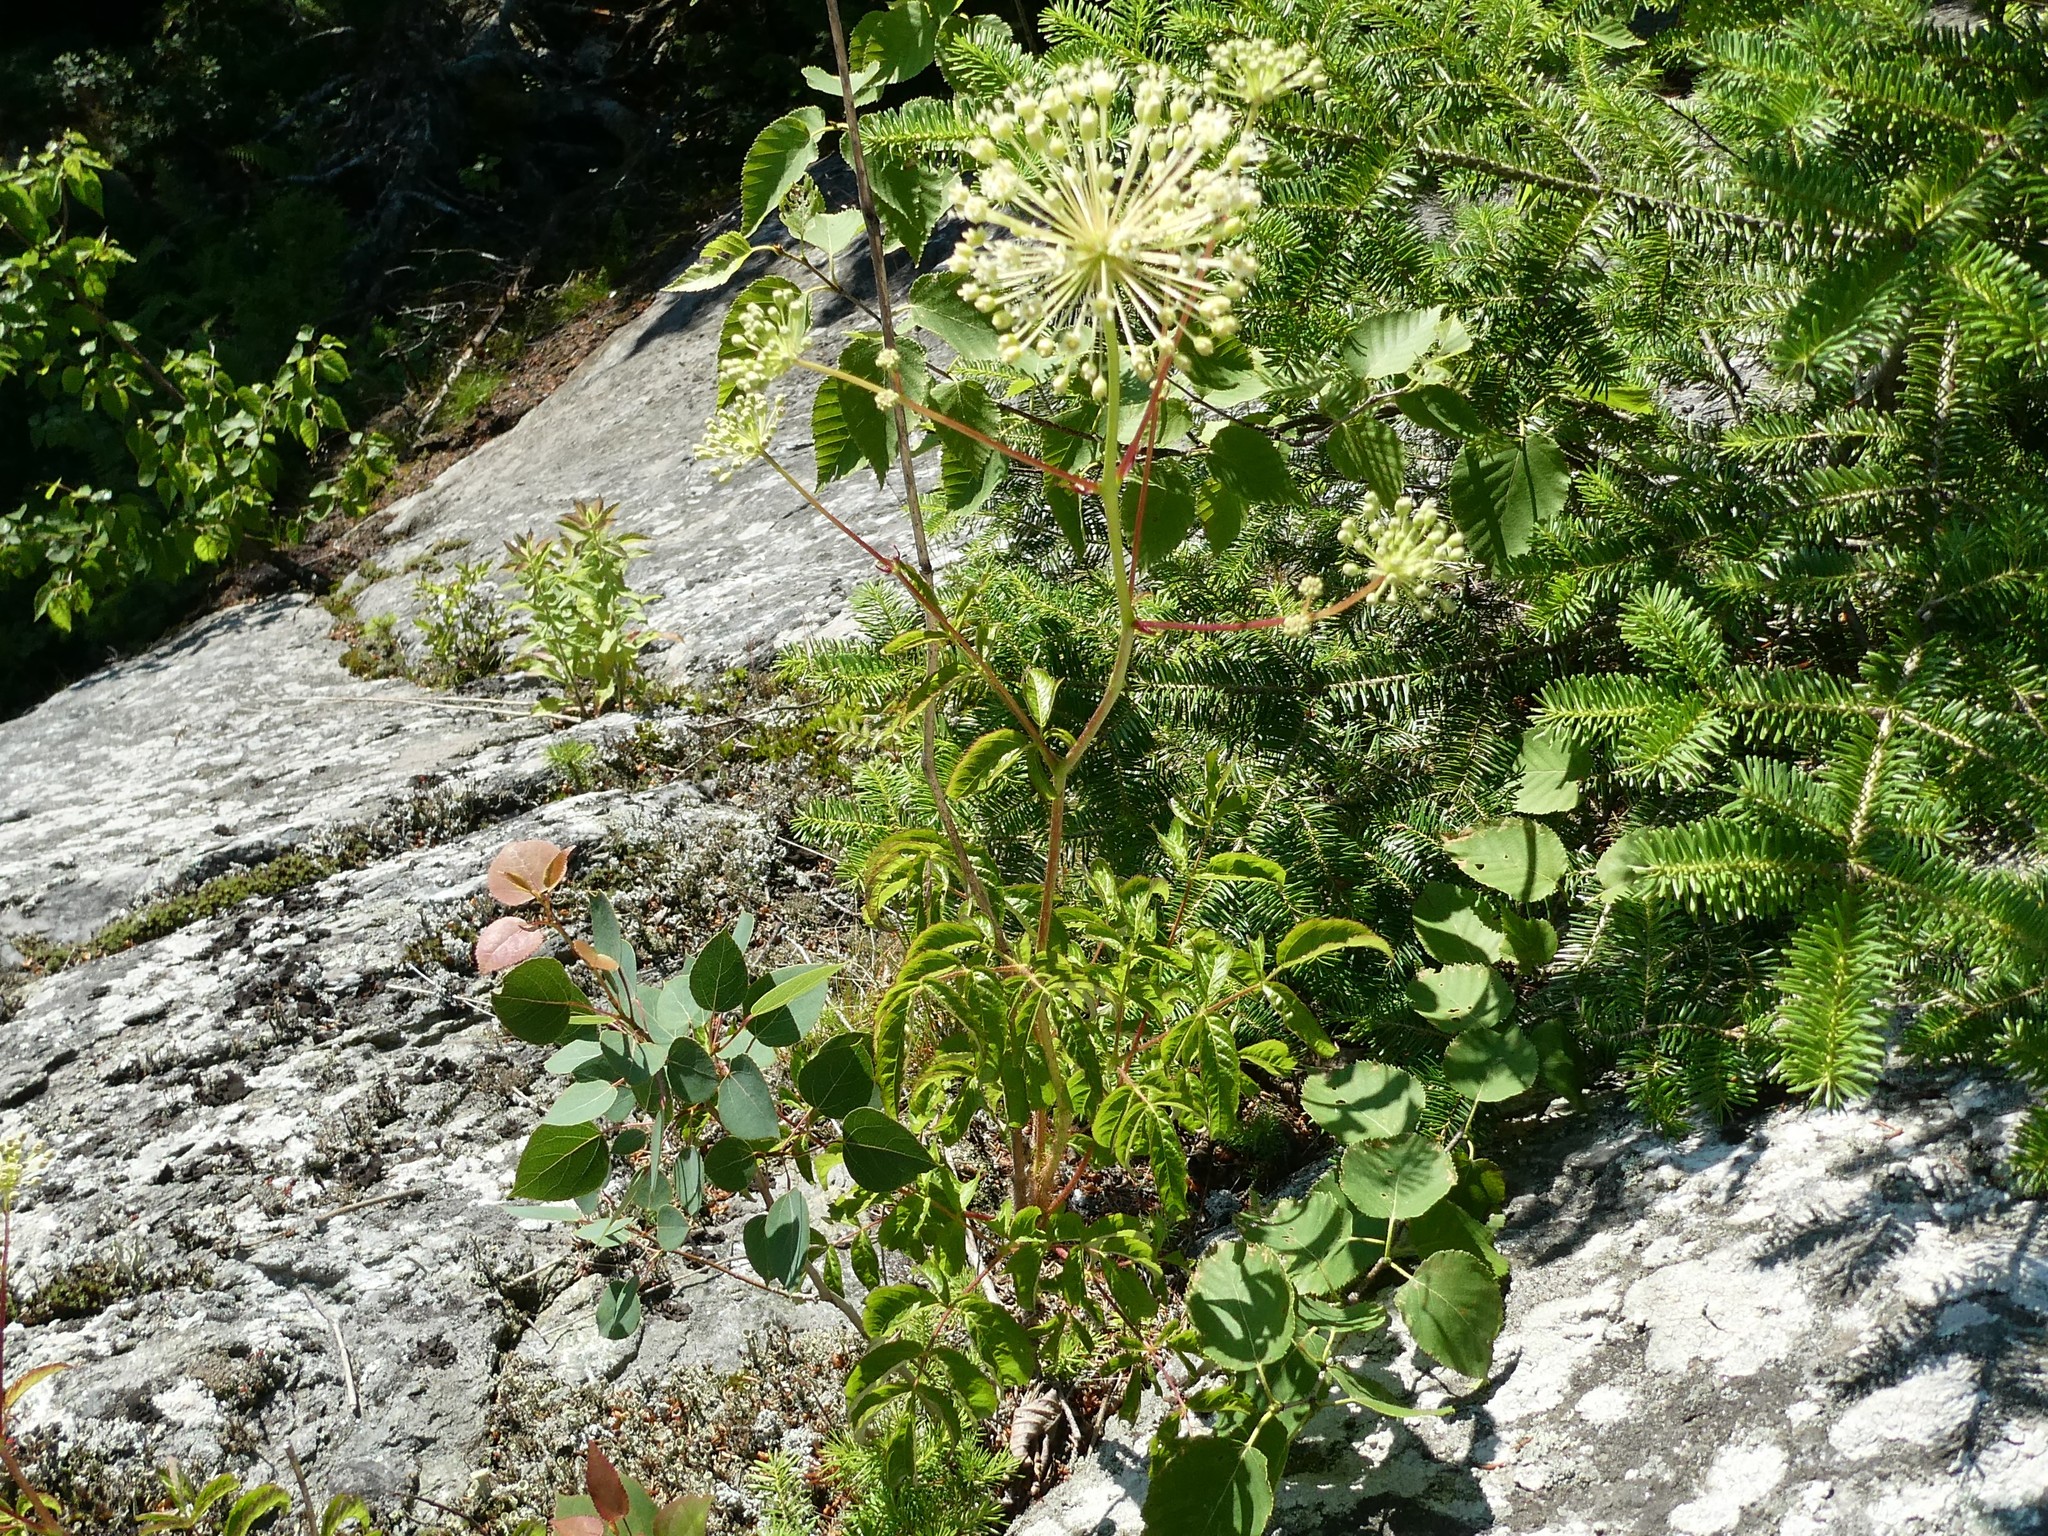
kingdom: Plantae
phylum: Tracheophyta
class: Magnoliopsida
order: Apiales
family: Araliaceae
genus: Aralia
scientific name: Aralia hispida
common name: Bristly sarsaparilla
